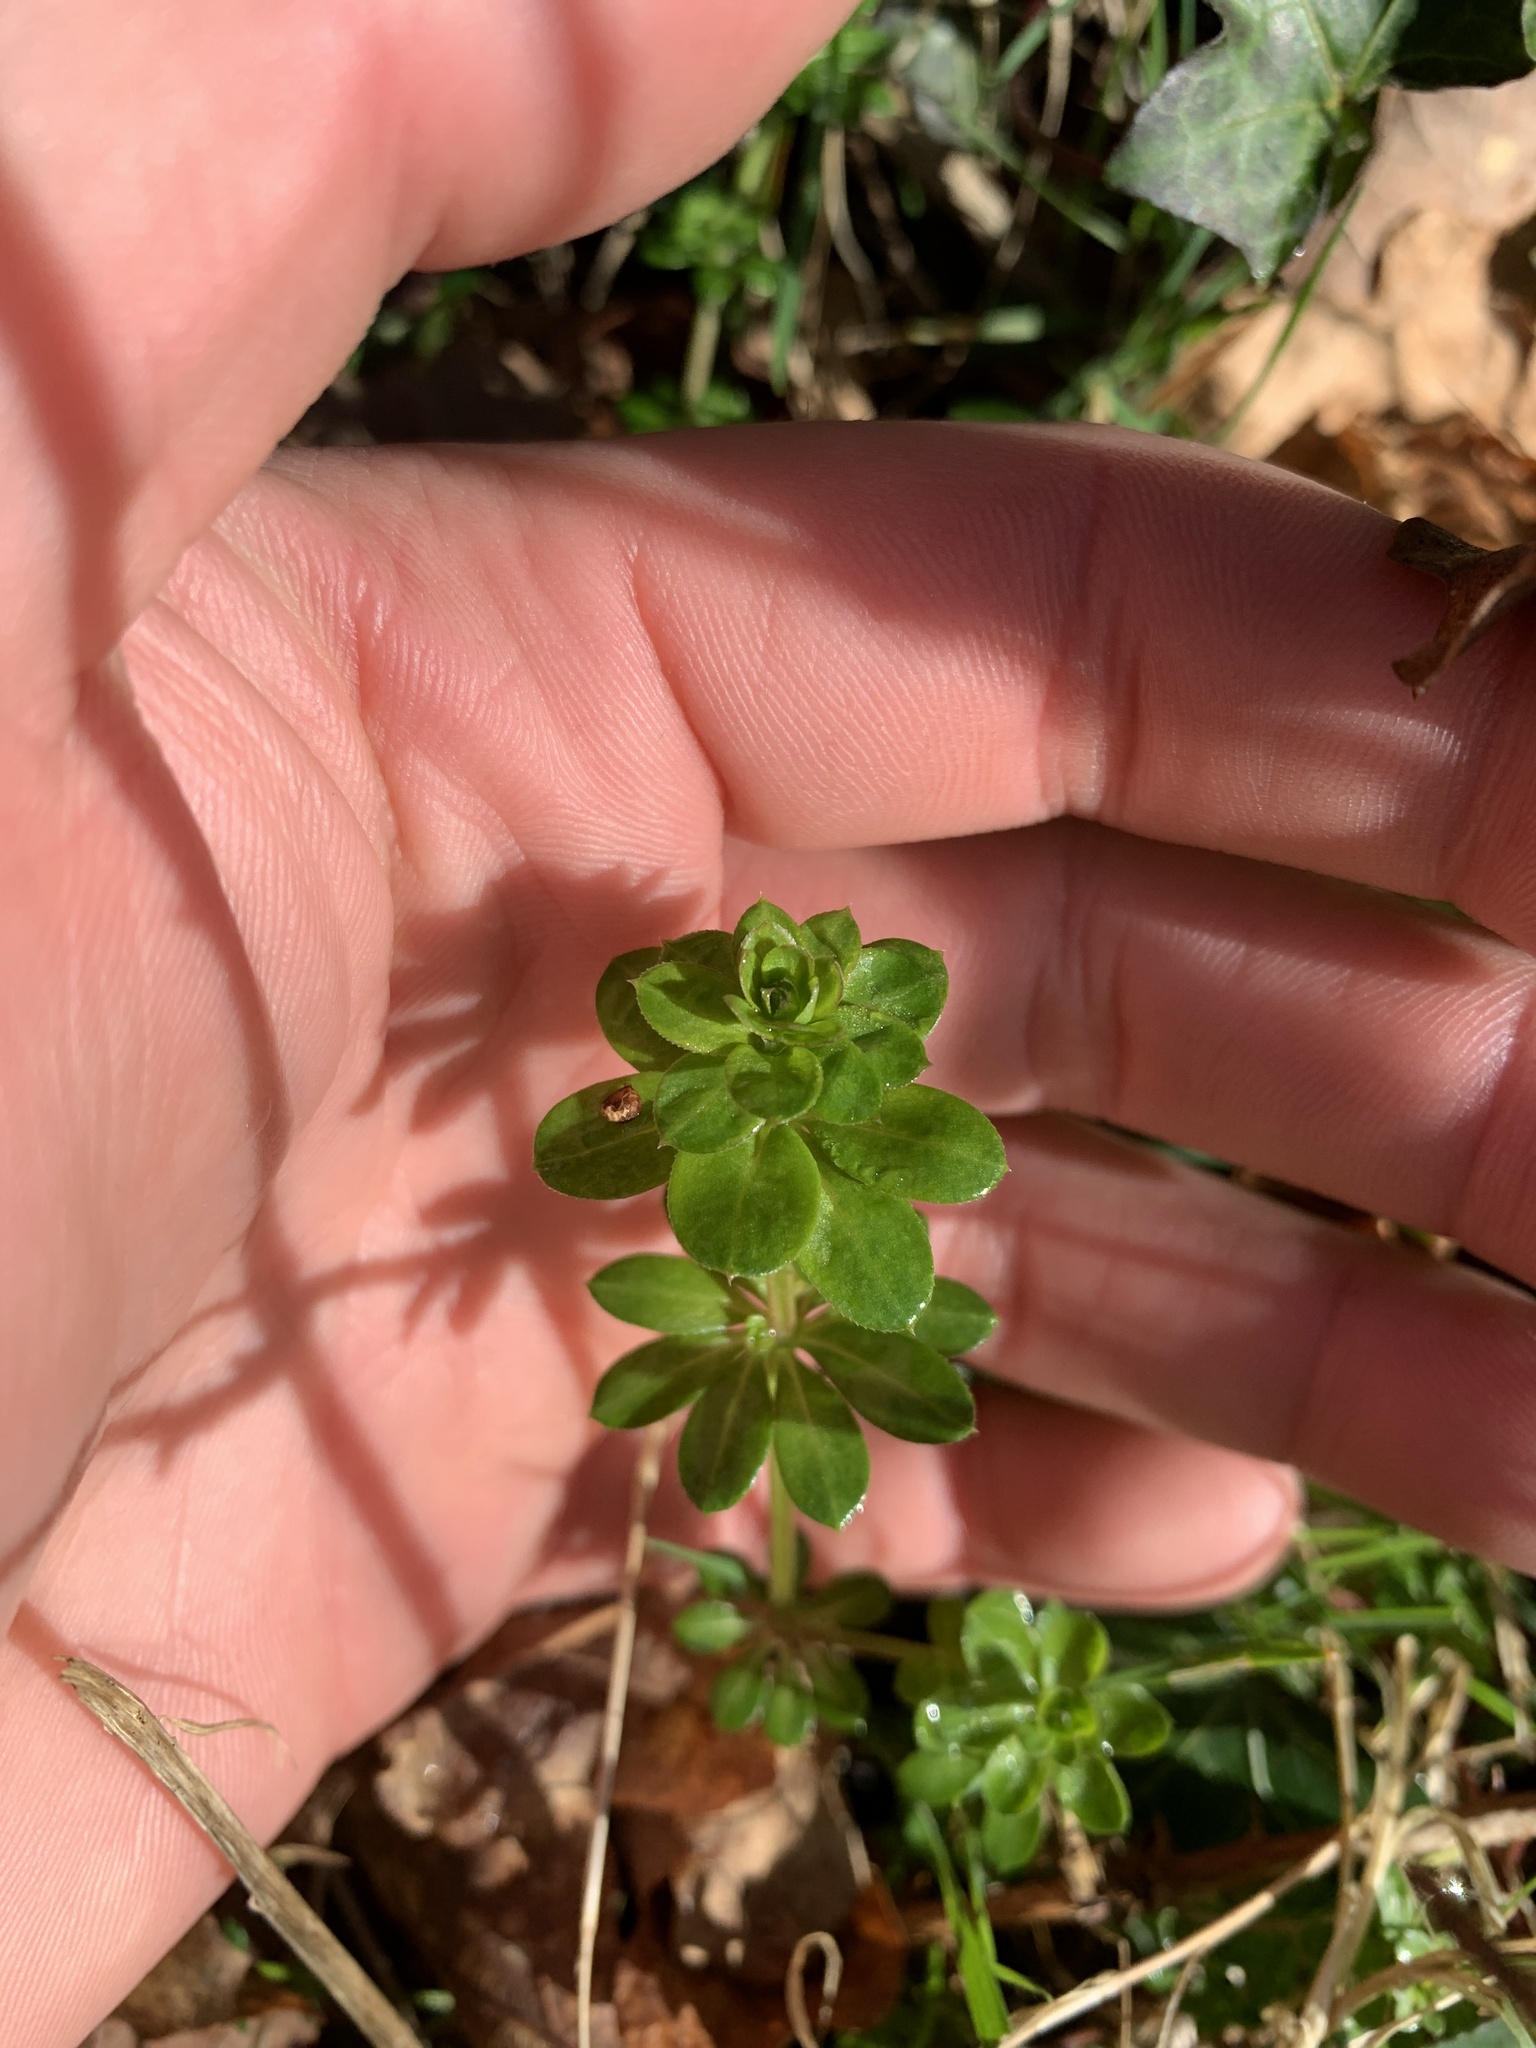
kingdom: Plantae
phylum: Tracheophyta
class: Magnoliopsida
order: Gentianales
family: Rubiaceae
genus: Galium
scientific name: Galium mollugo
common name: Hedge bedstraw
